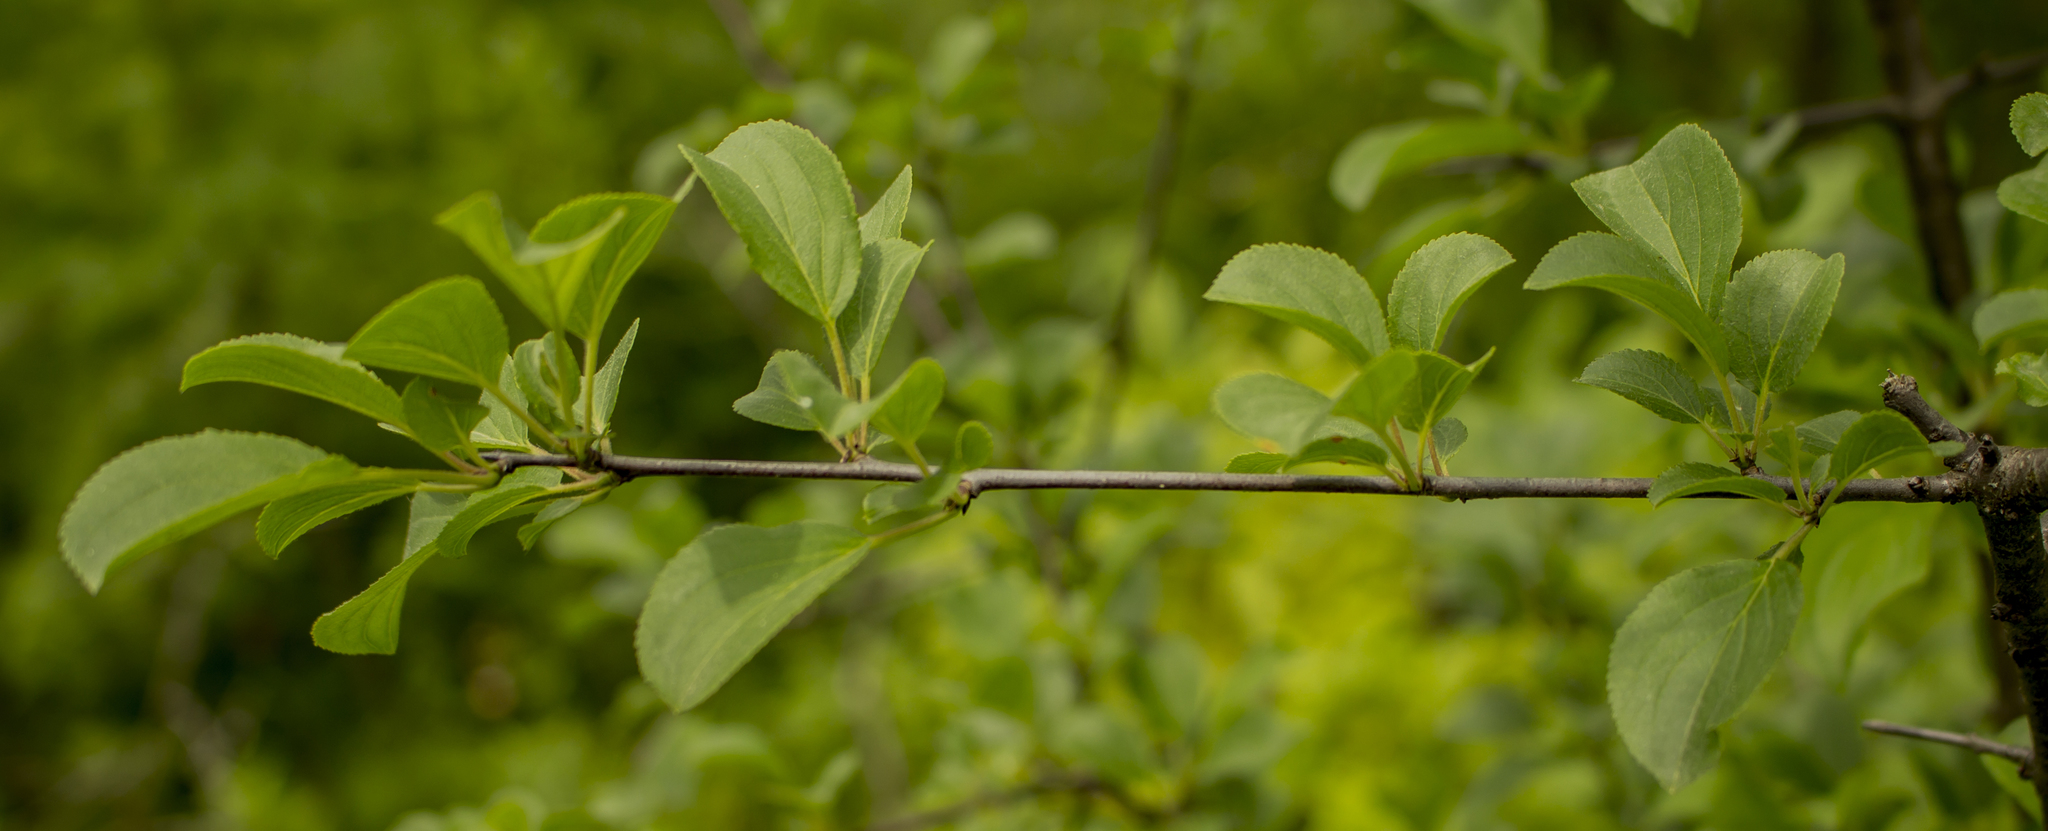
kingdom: Plantae
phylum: Tracheophyta
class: Magnoliopsida
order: Rosales
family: Rhamnaceae
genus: Rhamnus
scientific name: Rhamnus cathartica
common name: Common buckthorn
